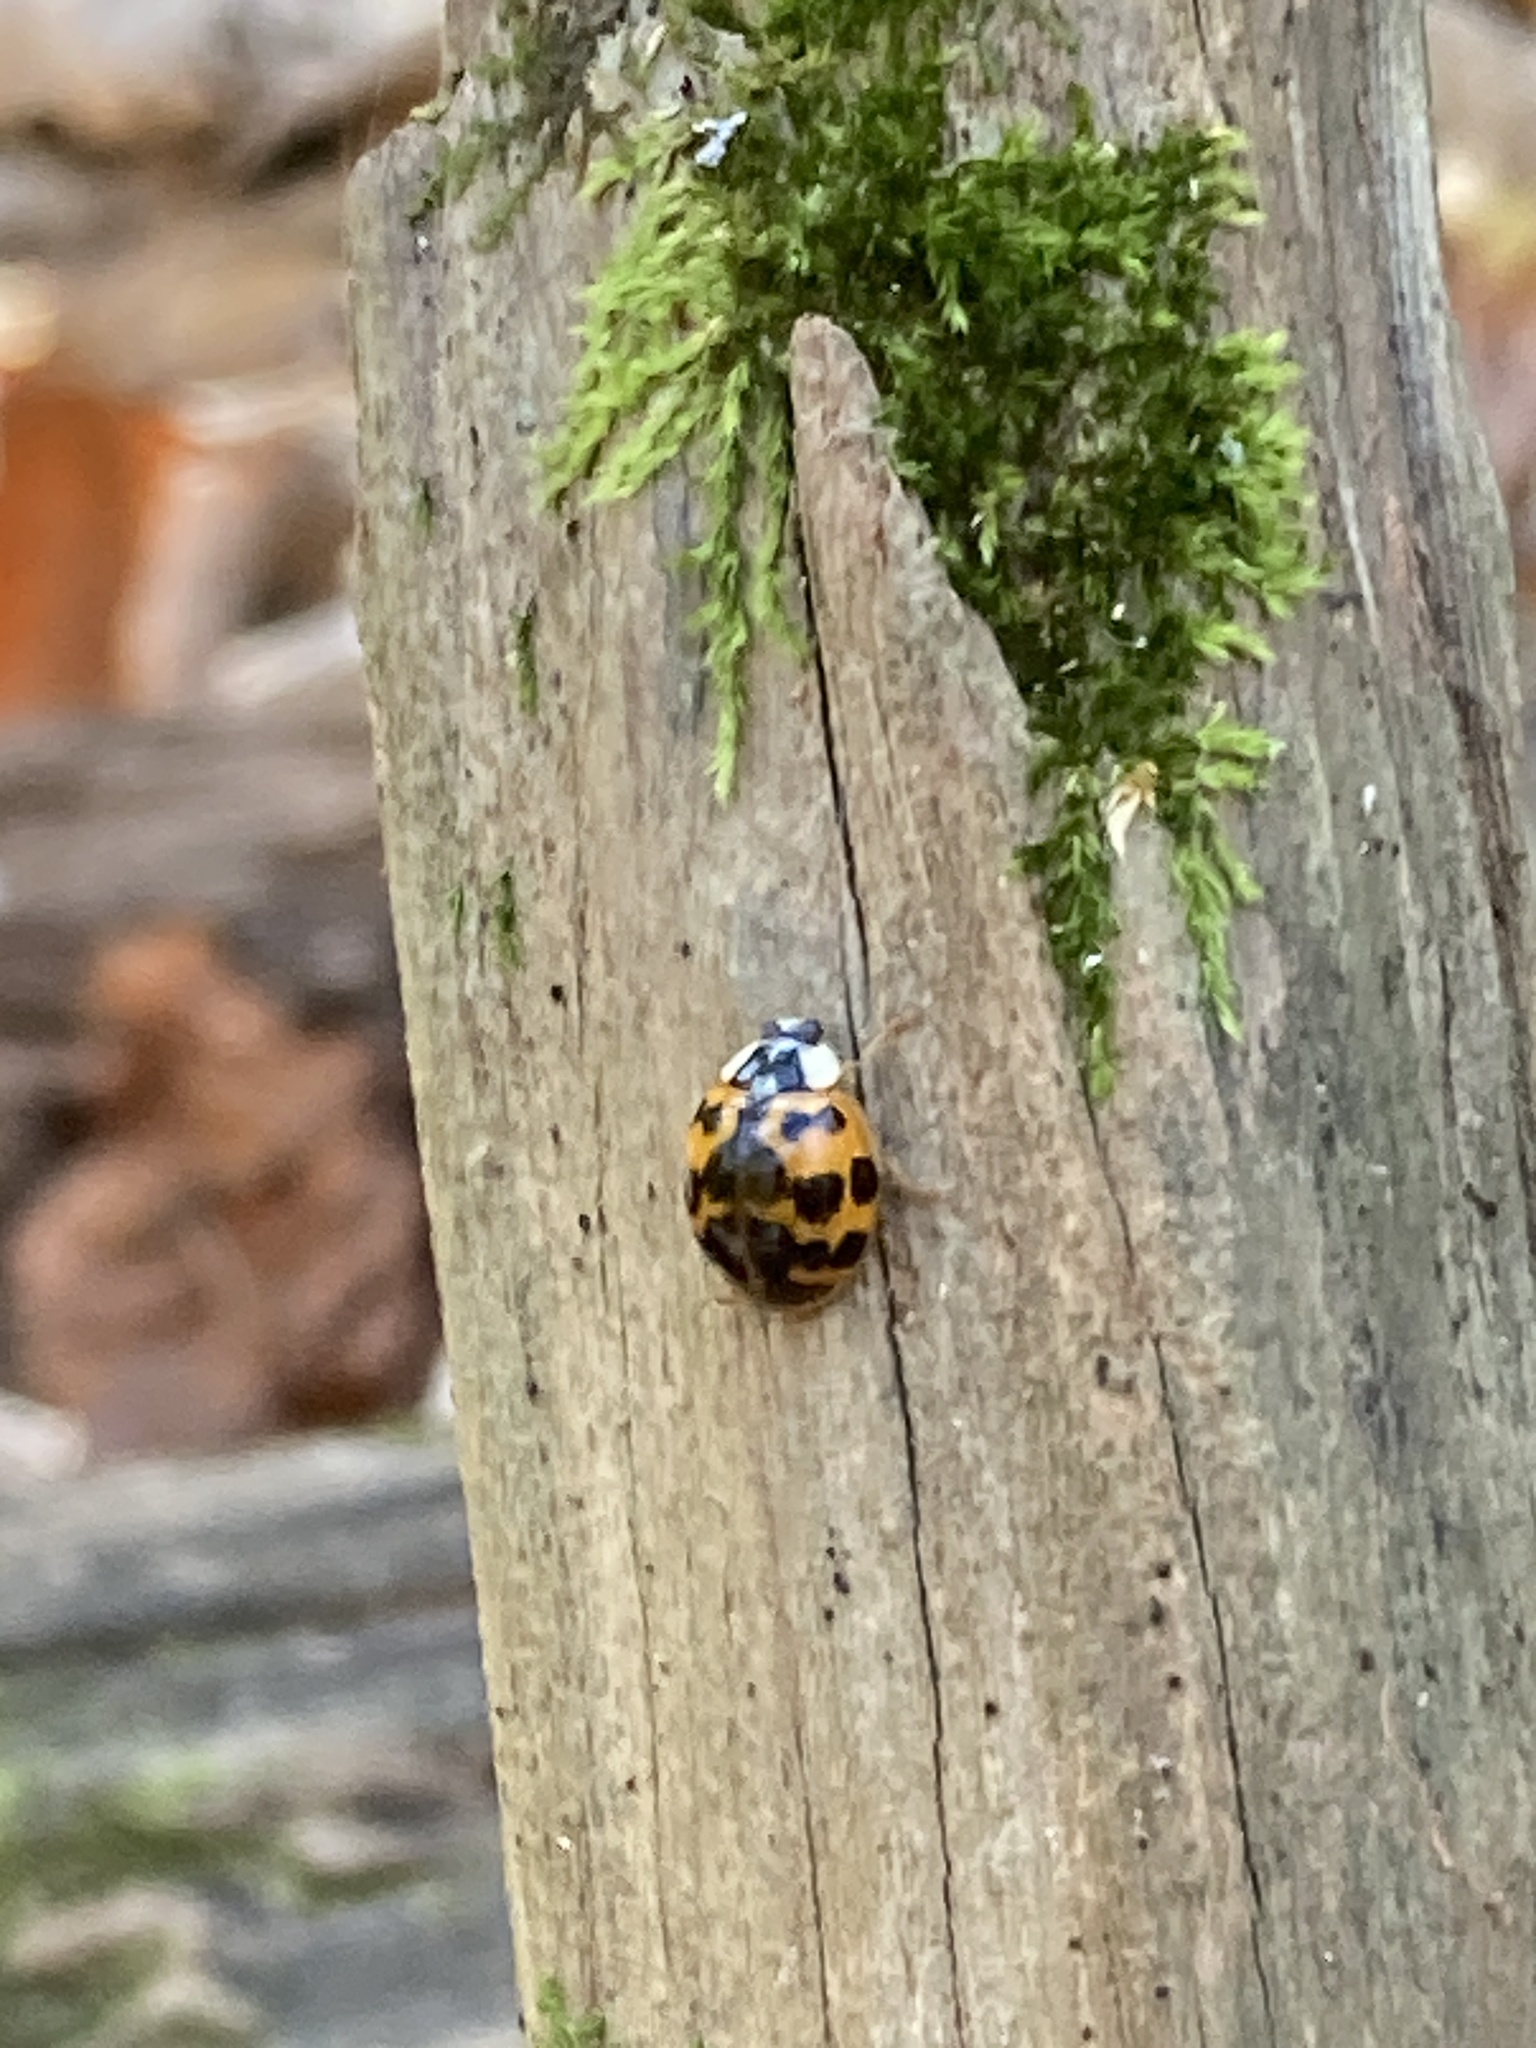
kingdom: Animalia
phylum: Arthropoda
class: Insecta
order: Coleoptera
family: Coccinellidae
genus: Harmonia
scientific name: Harmonia axyridis
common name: Harlequin ladybird
